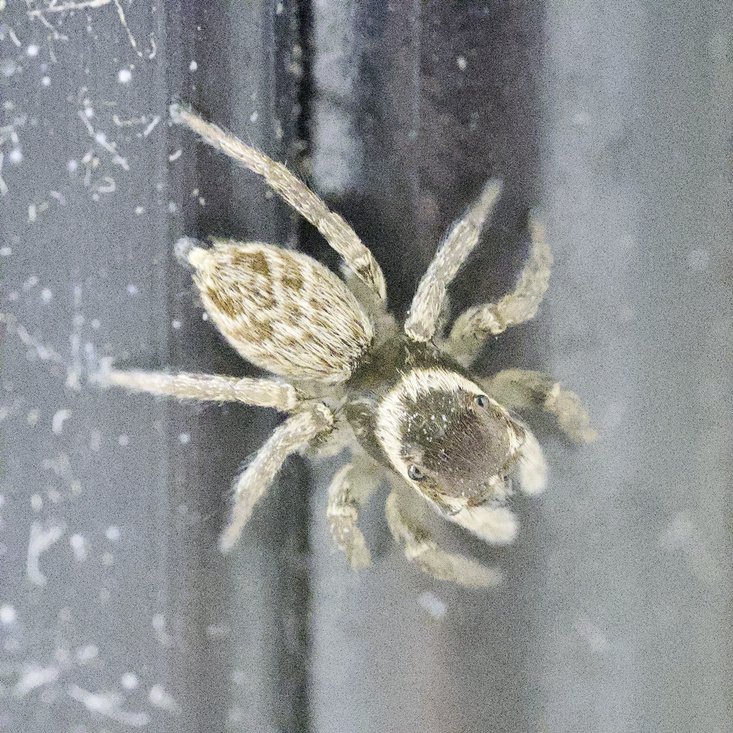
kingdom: Animalia
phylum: Arthropoda
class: Arachnida
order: Araneae
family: Salticidae
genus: Maratus
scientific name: Maratus griseus
